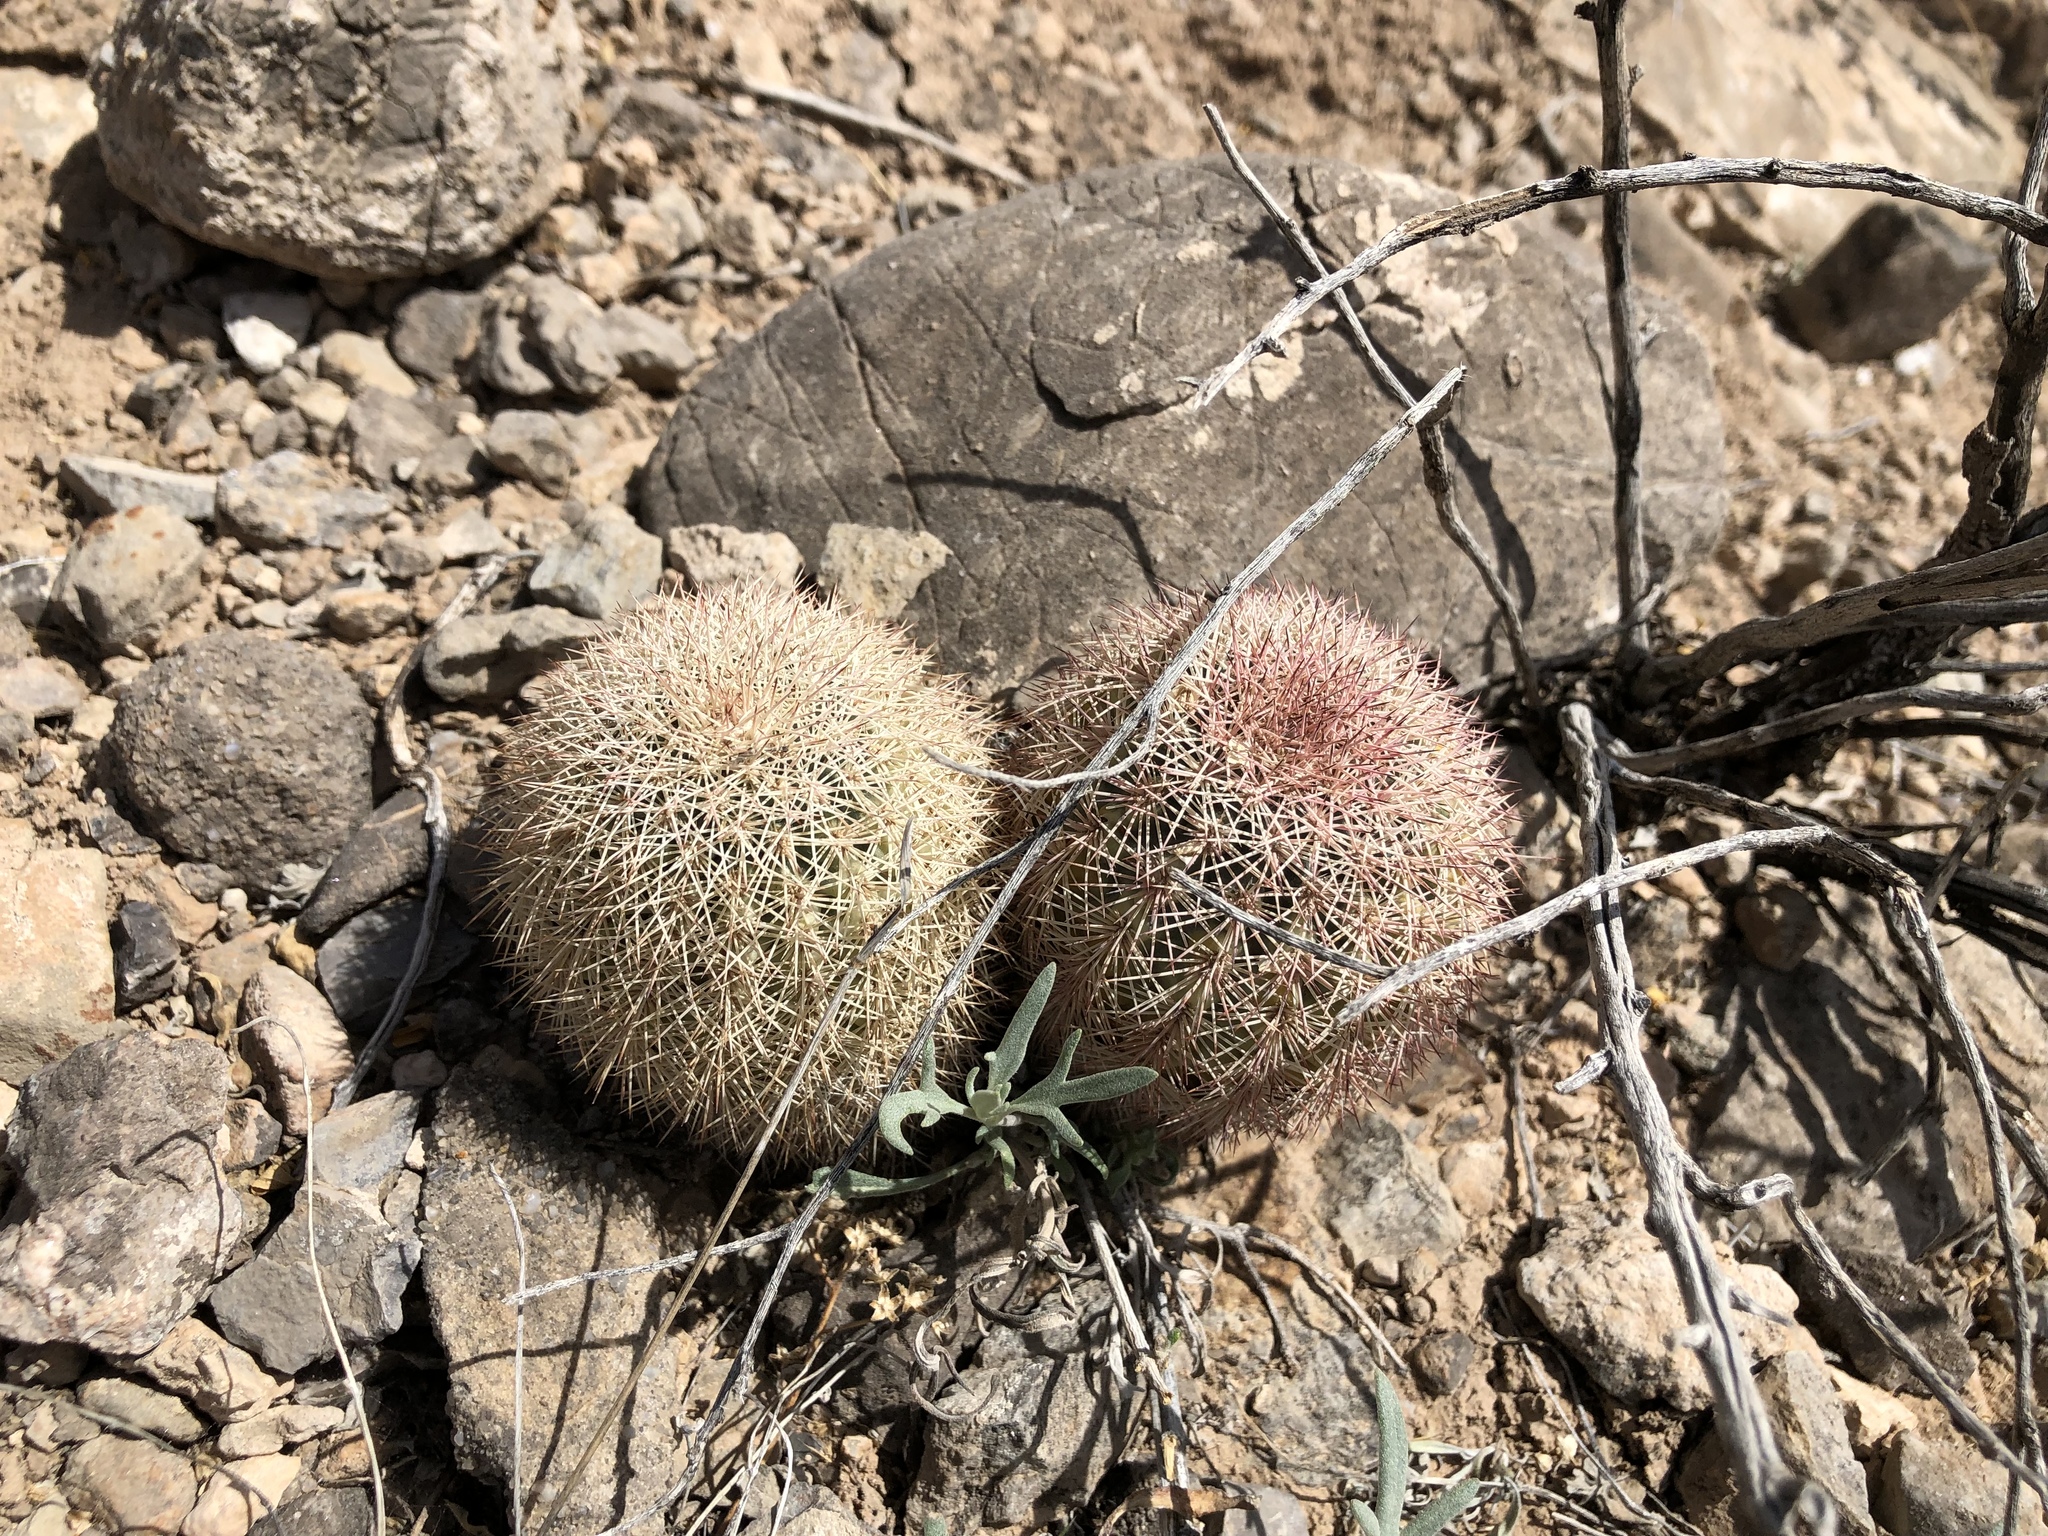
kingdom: Plantae
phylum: Tracheophyta
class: Magnoliopsida
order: Caryophyllales
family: Cactaceae
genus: Echinocereus
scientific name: Echinocereus dasyacanthus
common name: Spiny hedgehog cactus
